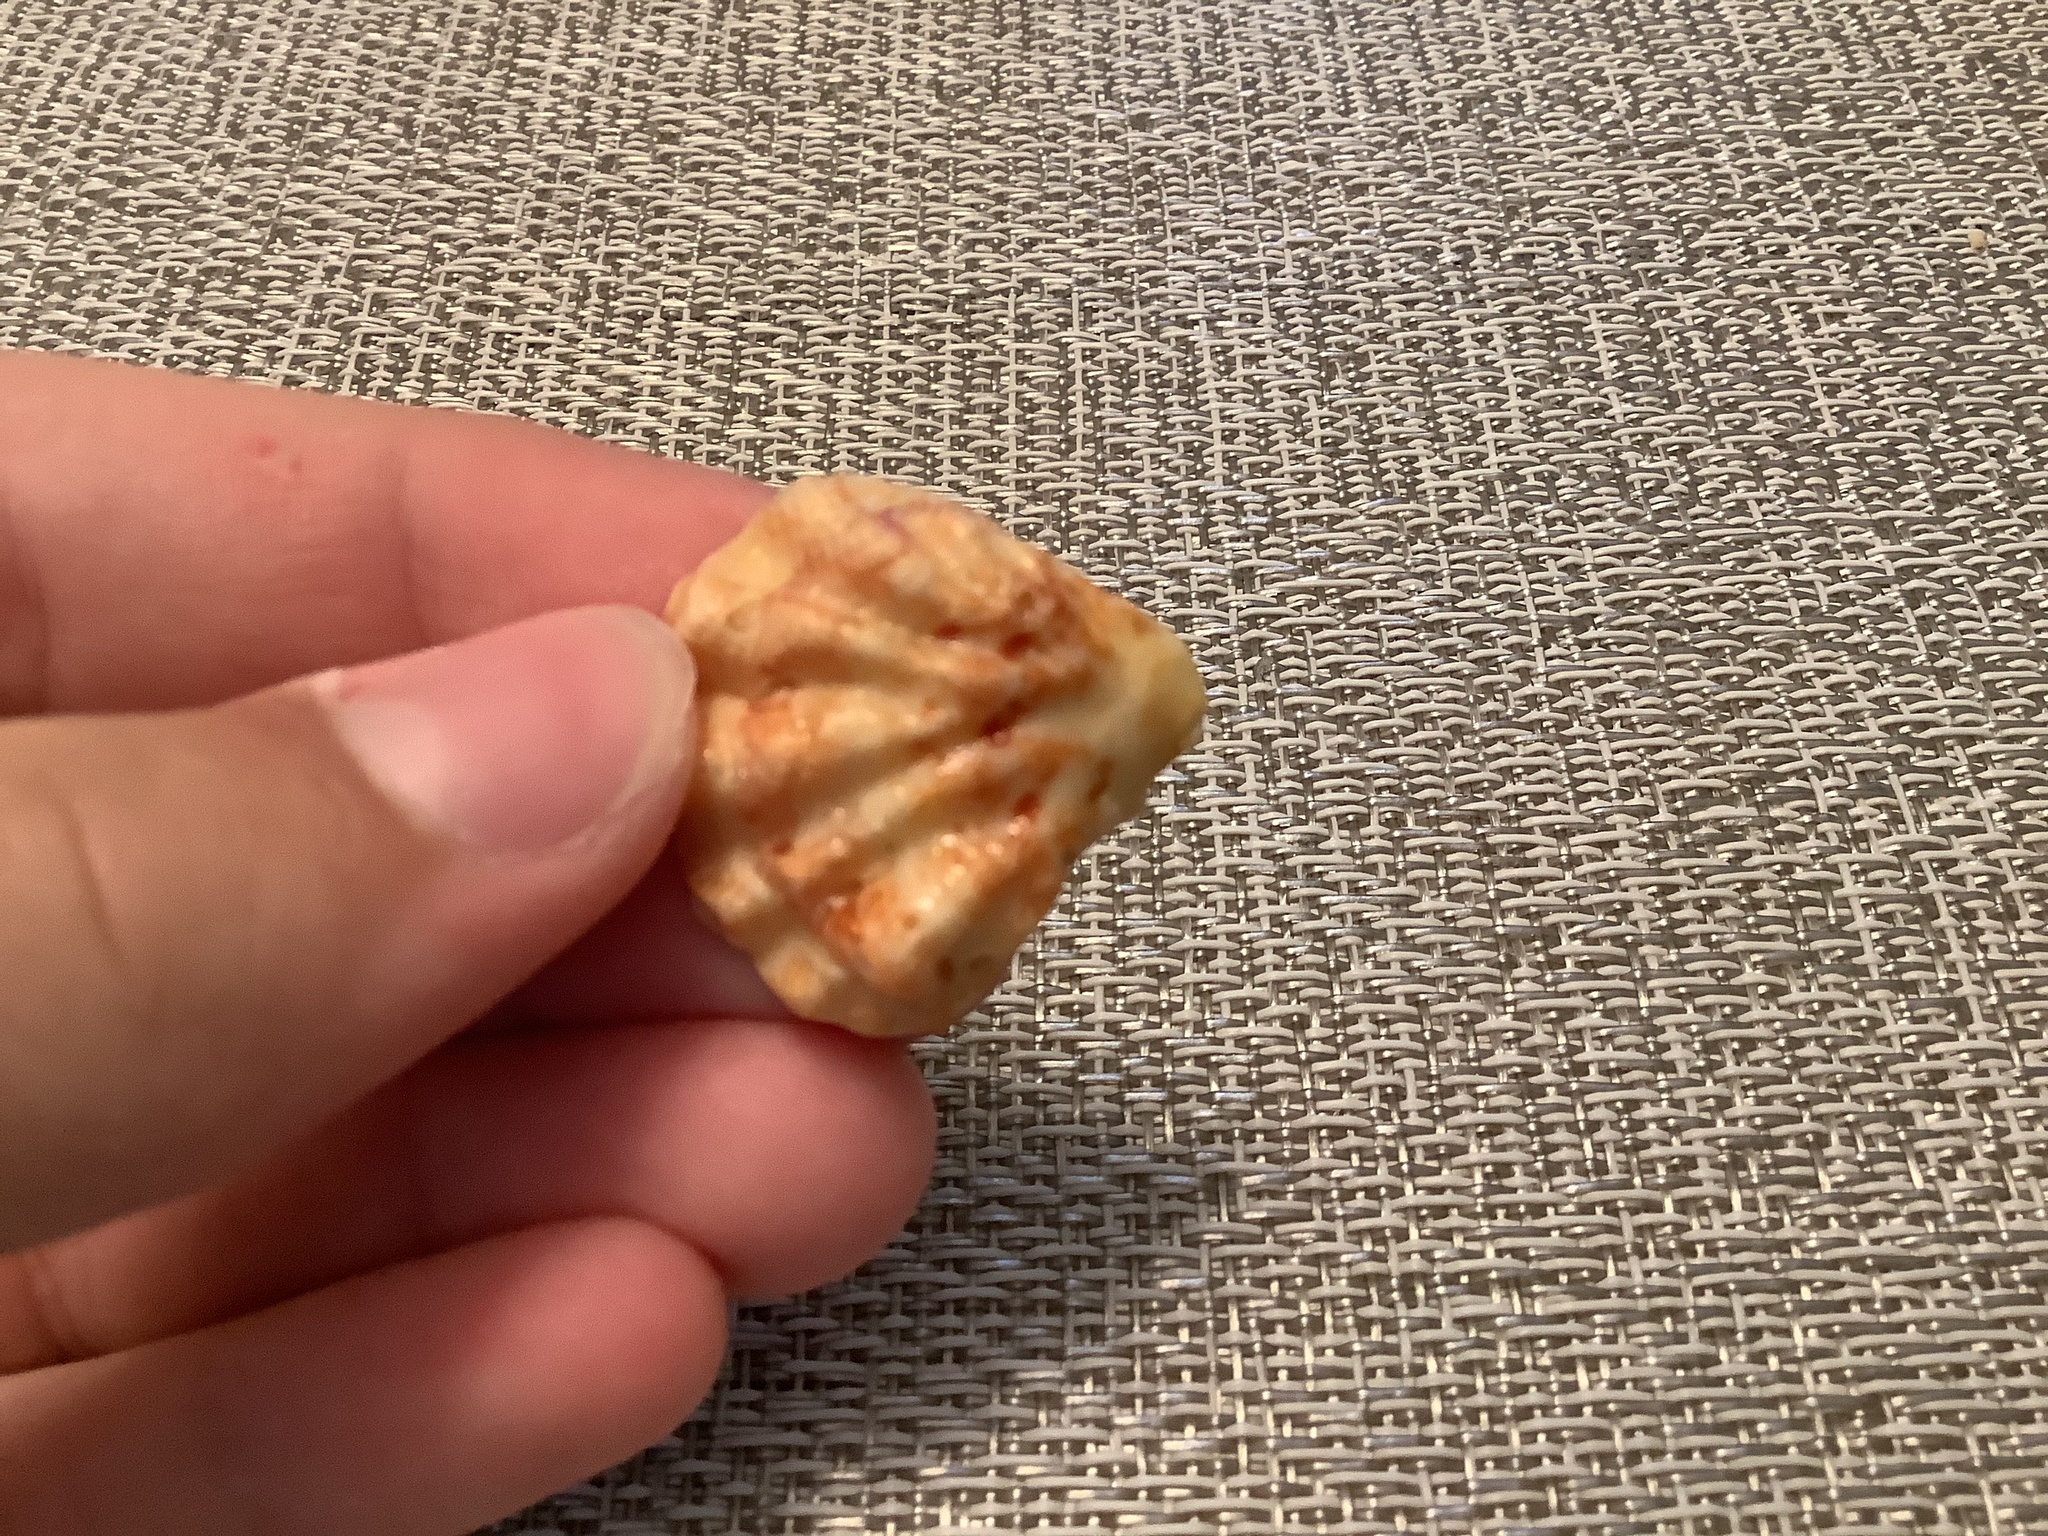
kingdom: Animalia
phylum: Mollusca
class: Bivalvia
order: Pectinida
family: Plicatulidae
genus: Plicatula
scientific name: Plicatula gibbosa
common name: Atlantic kitten's paw
